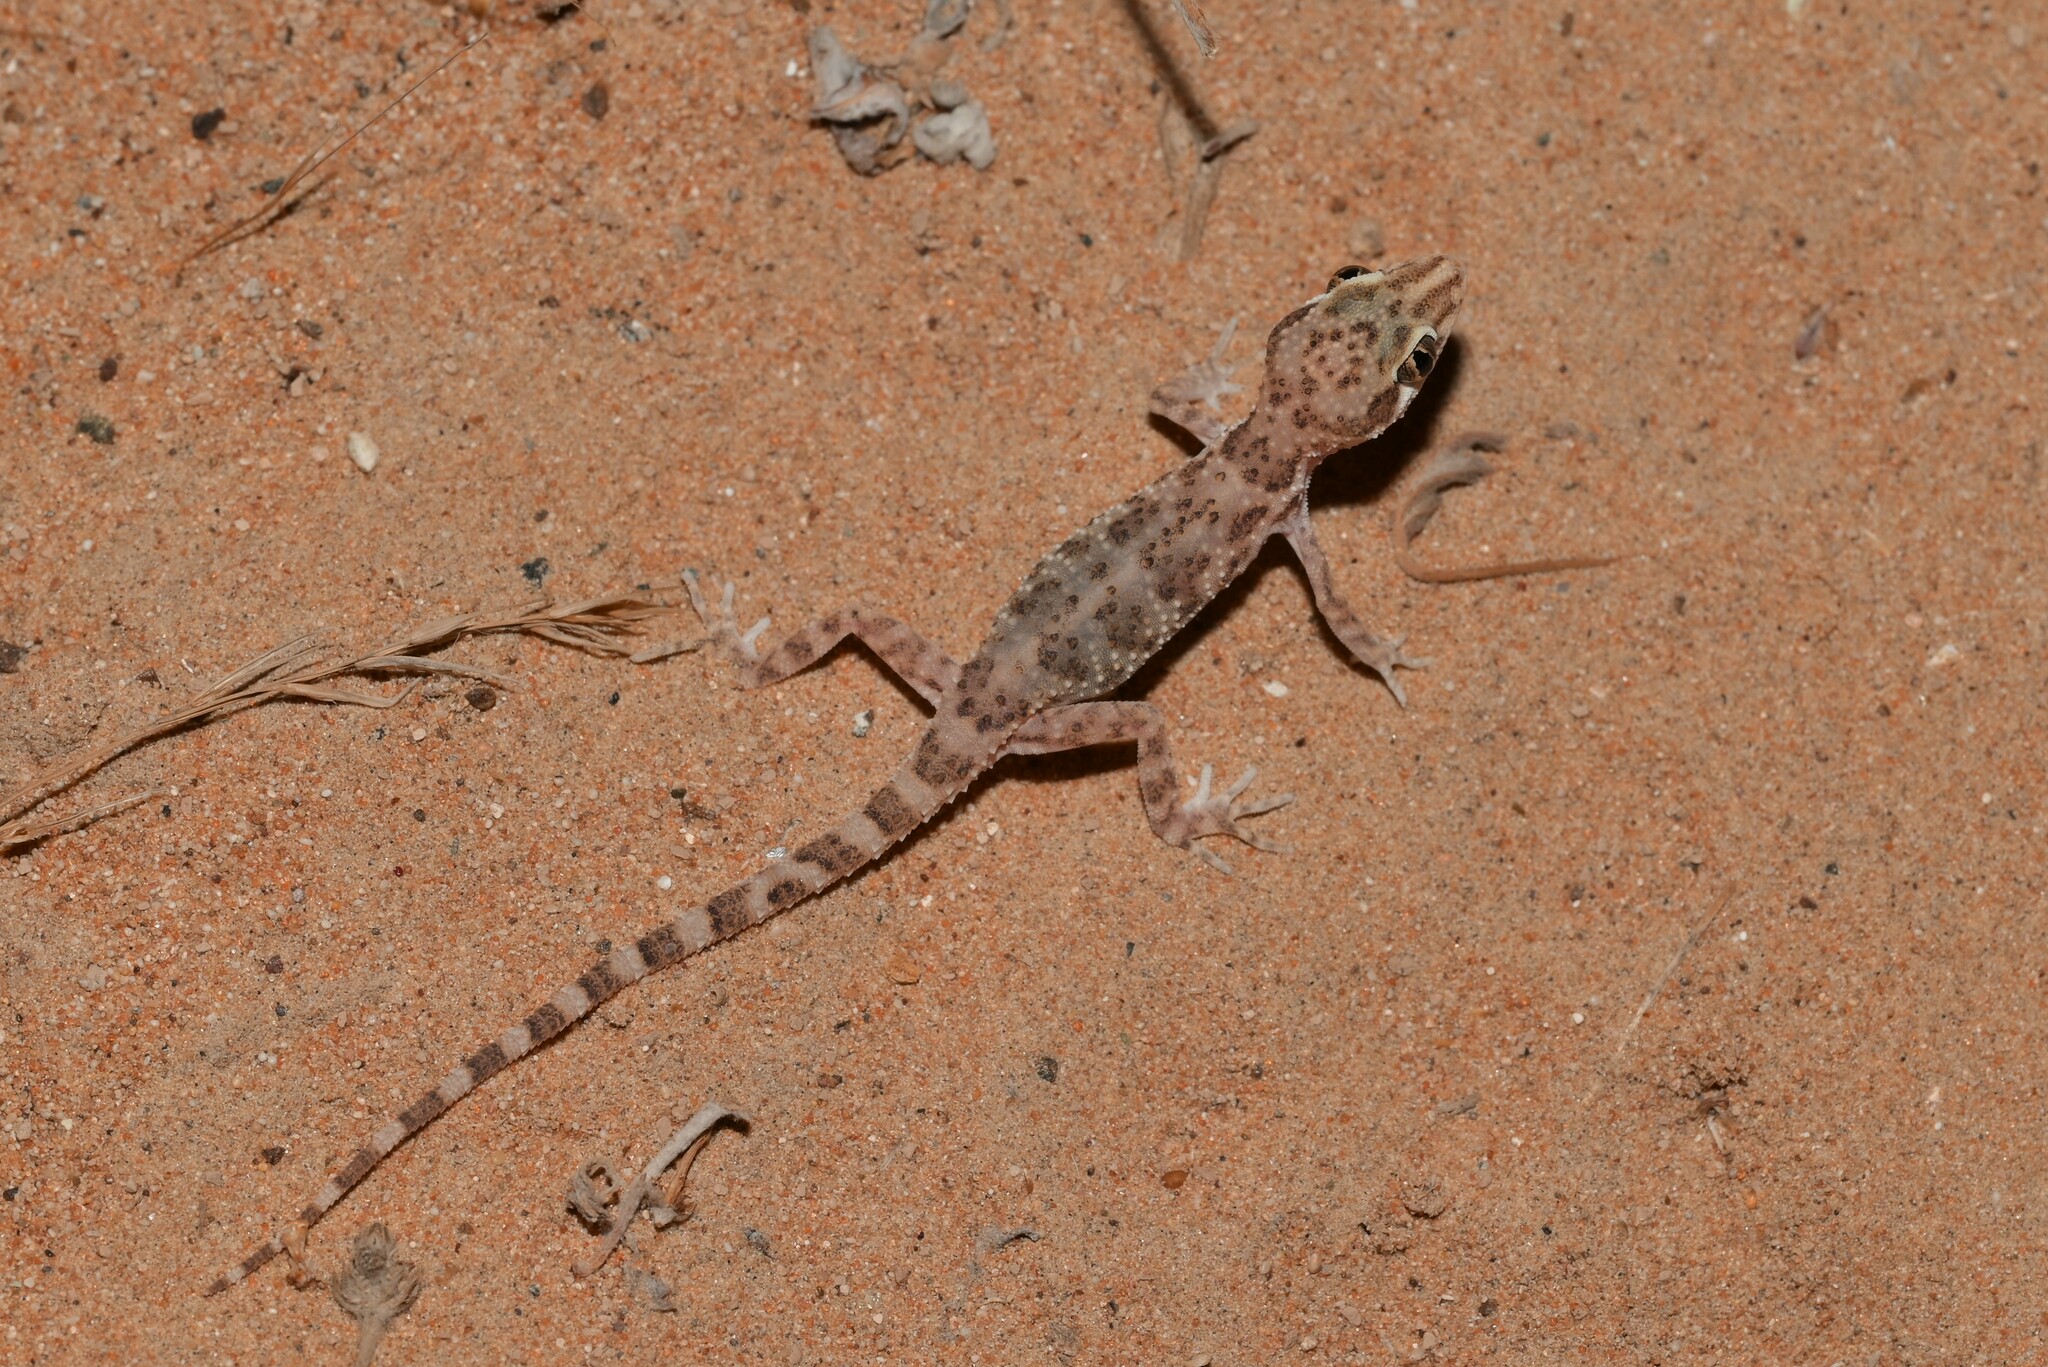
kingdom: Animalia
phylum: Chordata
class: Squamata
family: Gekkonidae
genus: Bunopus
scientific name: Bunopus tuberculatus
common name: Southern tuberculated gecko
